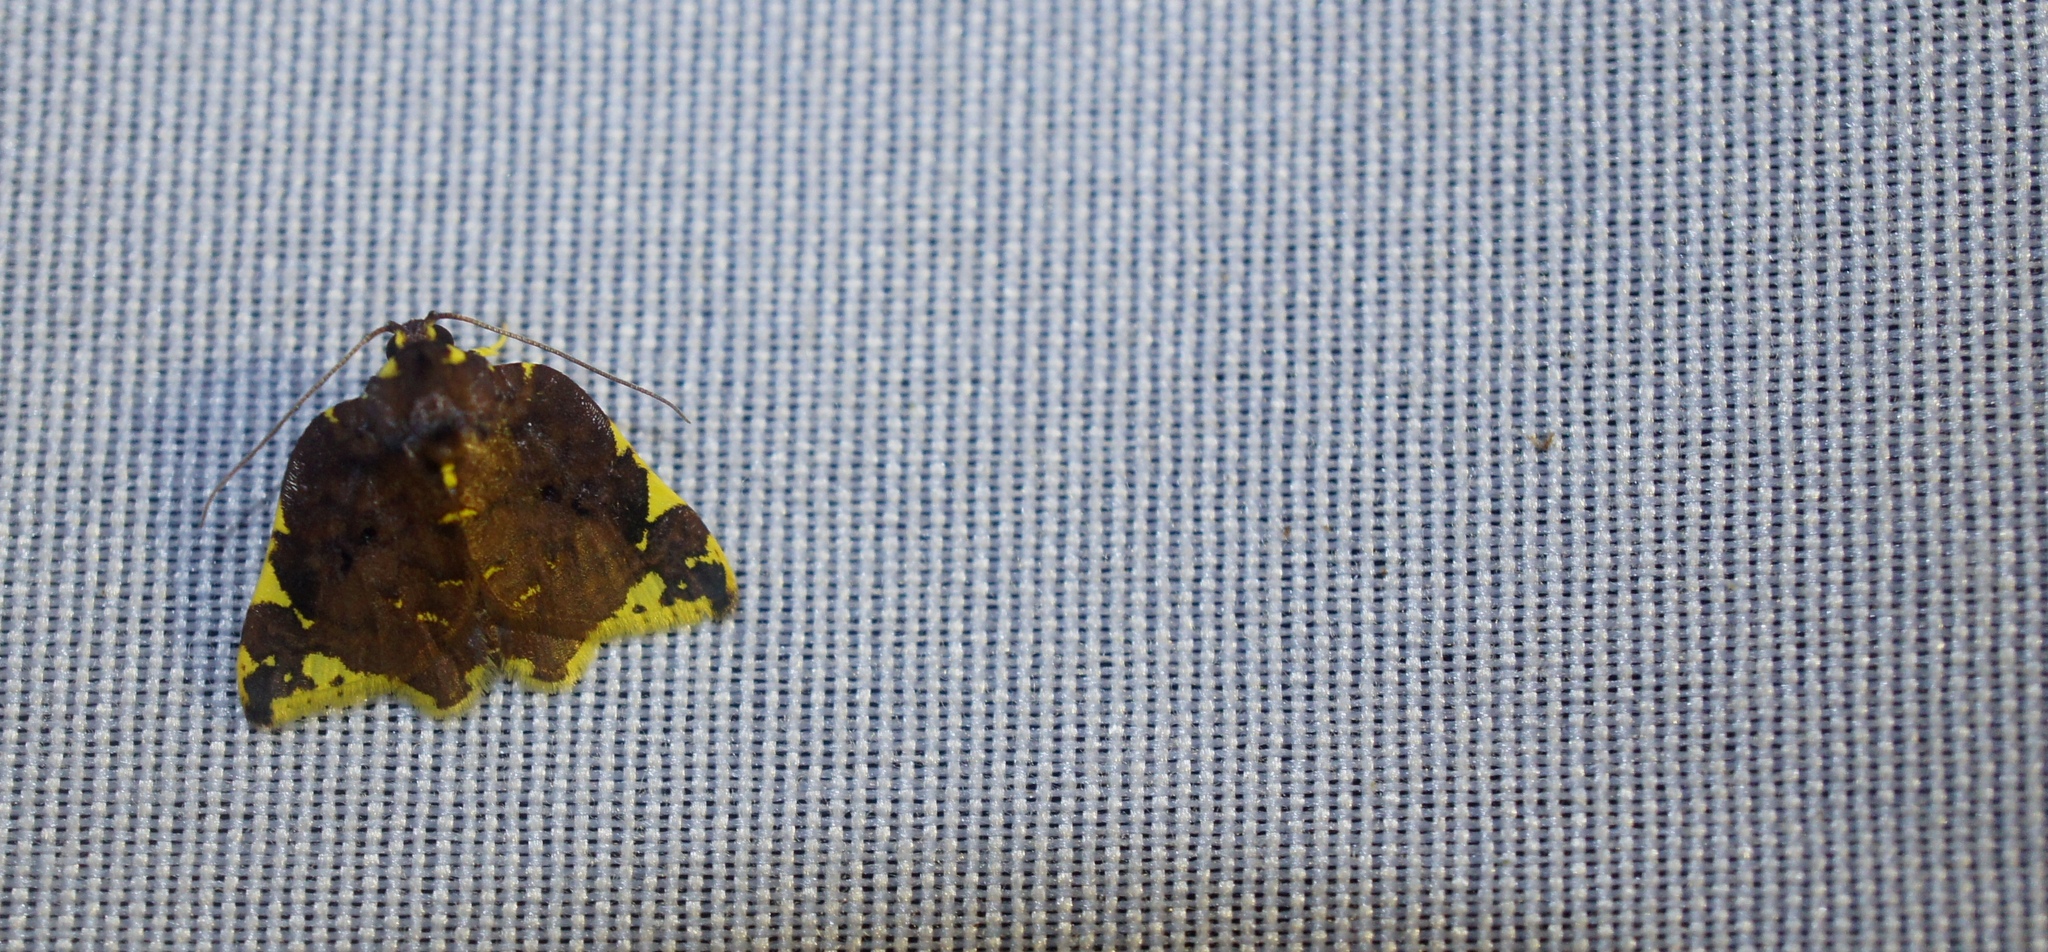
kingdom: Animalia
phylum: Arthropoda
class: Insecta
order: Lepidoptera
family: Nolidae
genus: Cossedia
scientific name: Cossedia hyriodes
